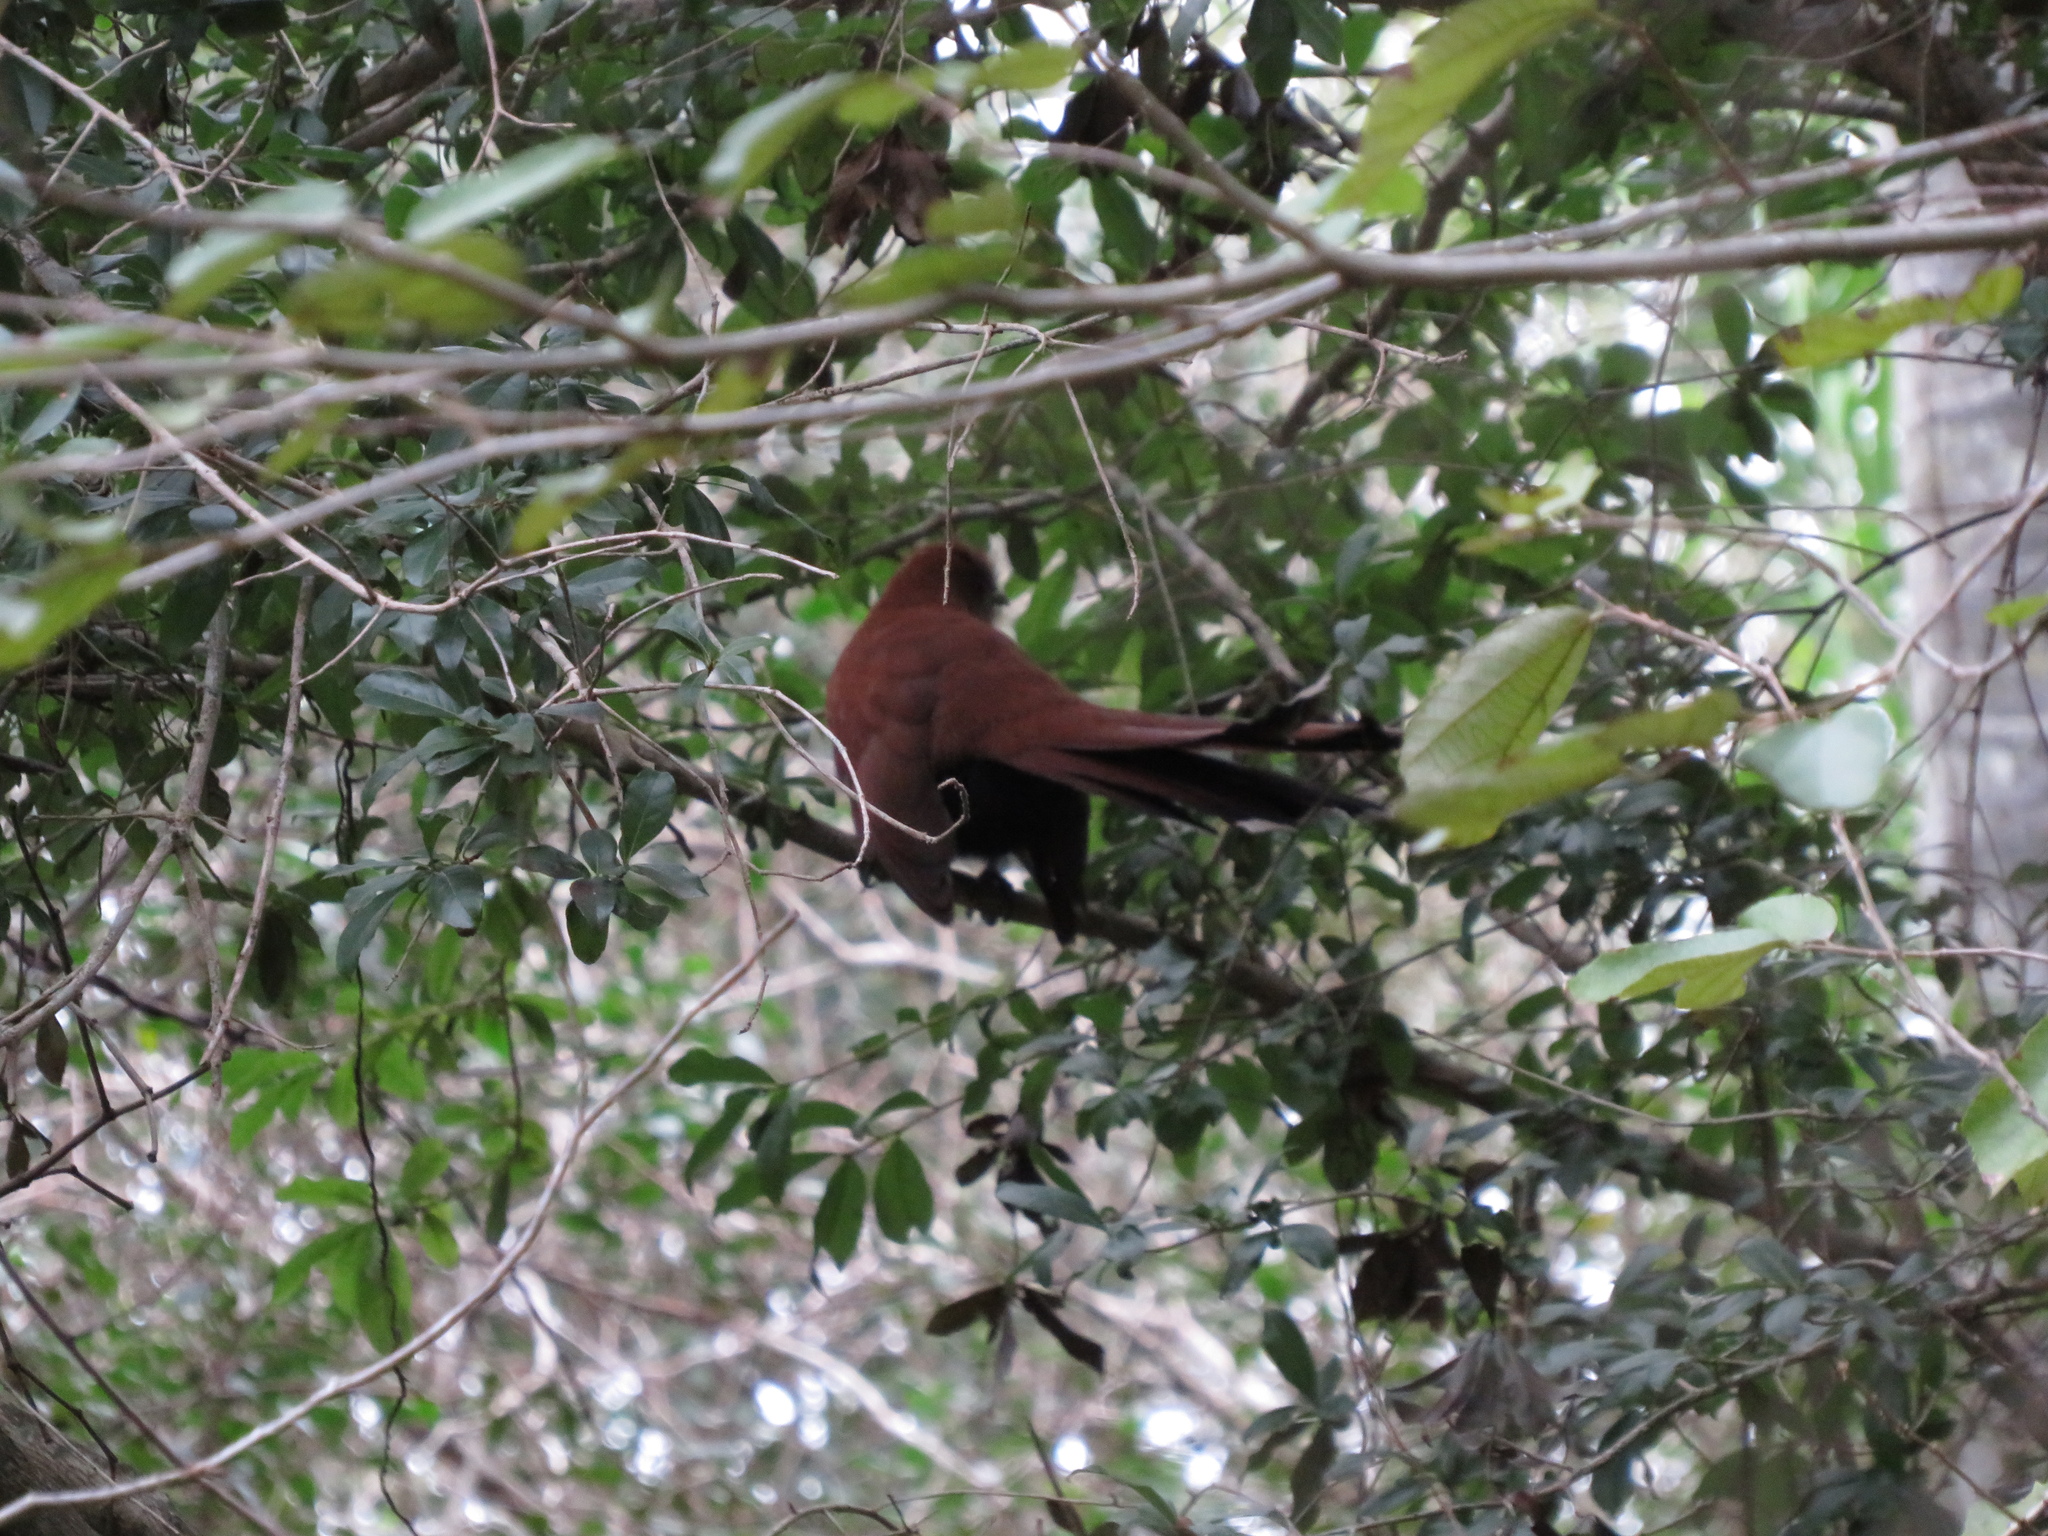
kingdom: Animalia
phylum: Chordata
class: Aves
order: Cuculiformes
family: Cuculidae
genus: Piaya
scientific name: Piaya cayana
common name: Squirrel cuckoo
